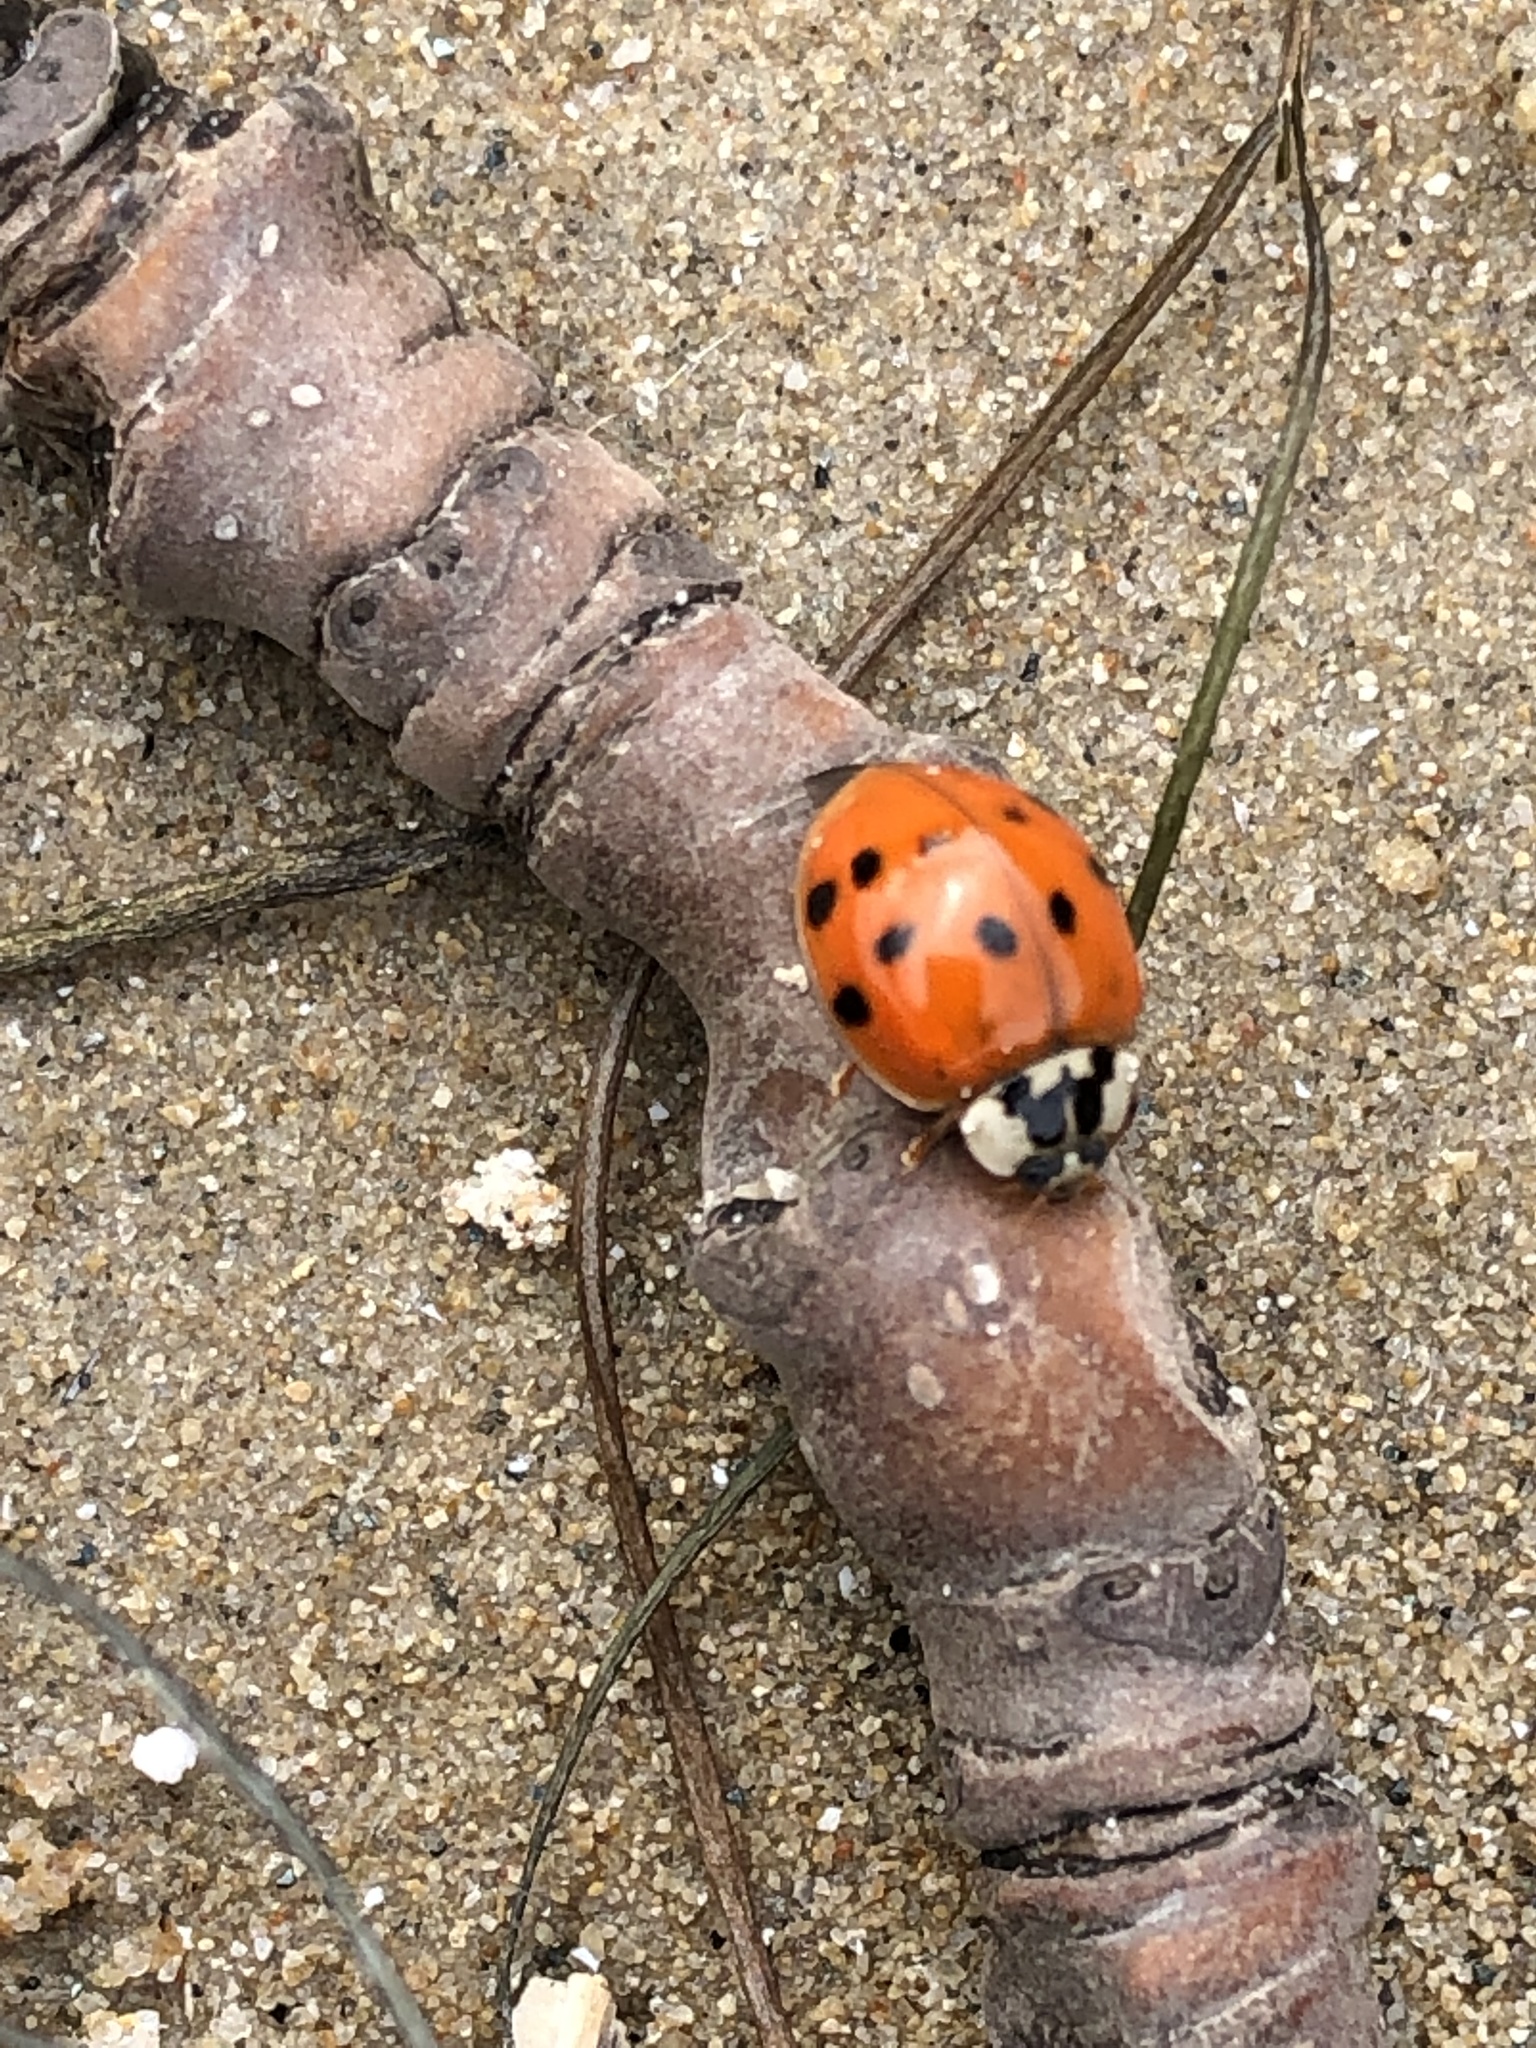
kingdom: Animalia
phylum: Arthropoda
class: Insecta
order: Coleoptera
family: Coccinellidae
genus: Harmonia
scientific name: Harmonia axyridis
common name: Harlequin ladybird
